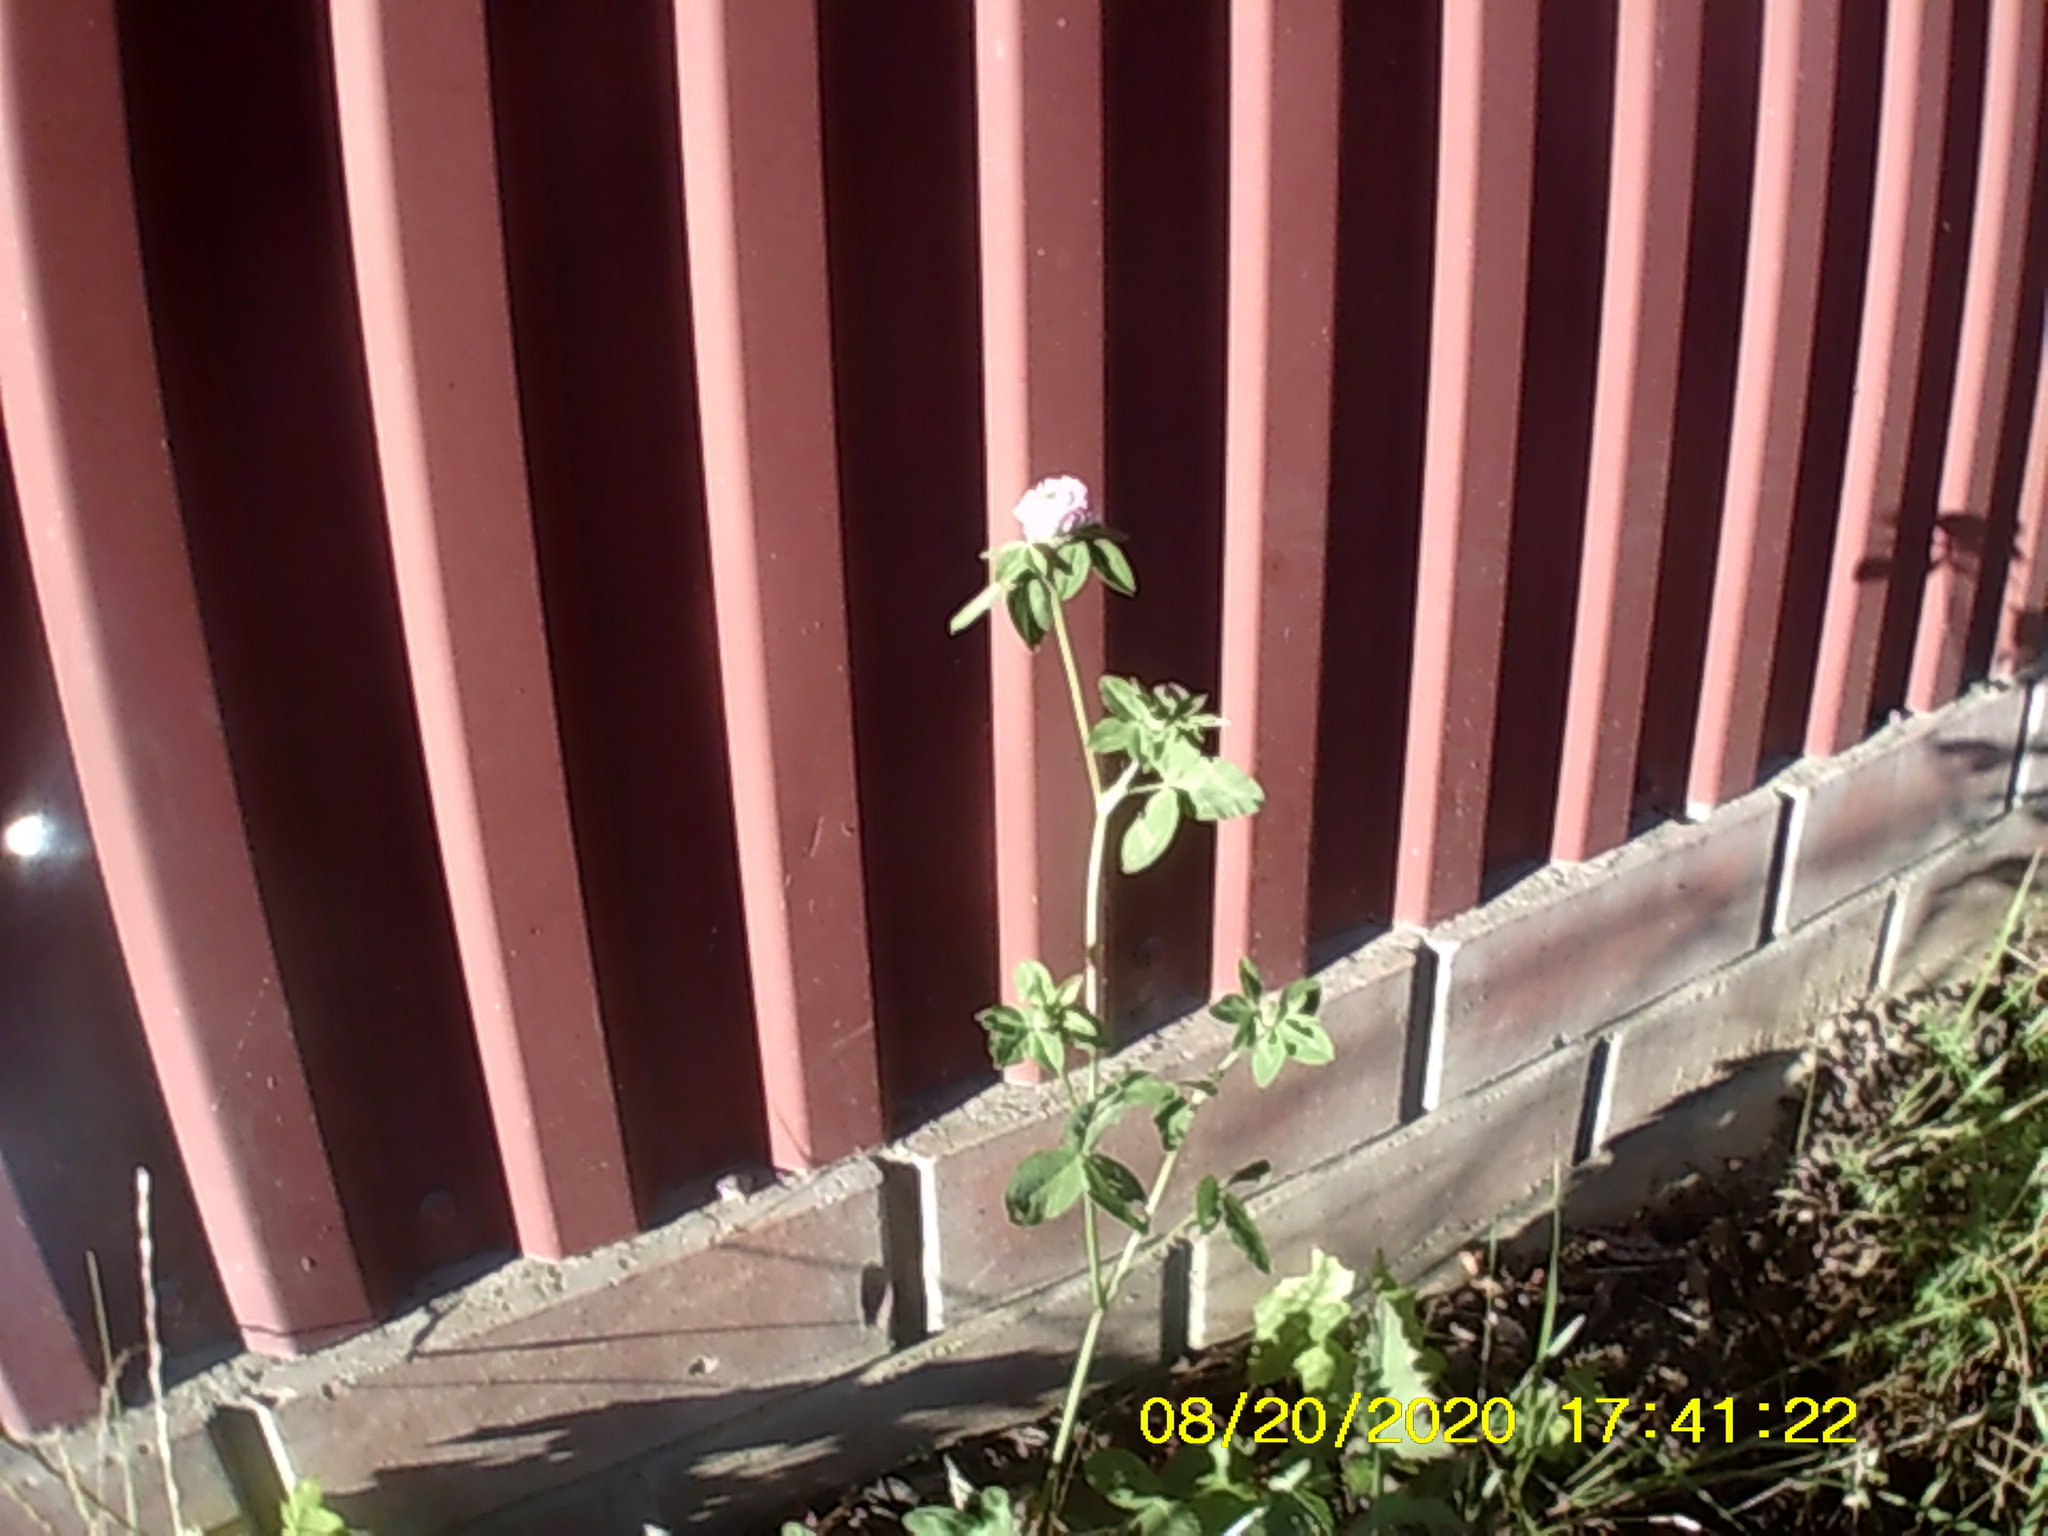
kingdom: Plantae
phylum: Tracheophyta
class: Magnoliopsida
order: Fabales
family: Fabaceae
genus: Trifolium
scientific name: Trifolium pratense
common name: Red clover
